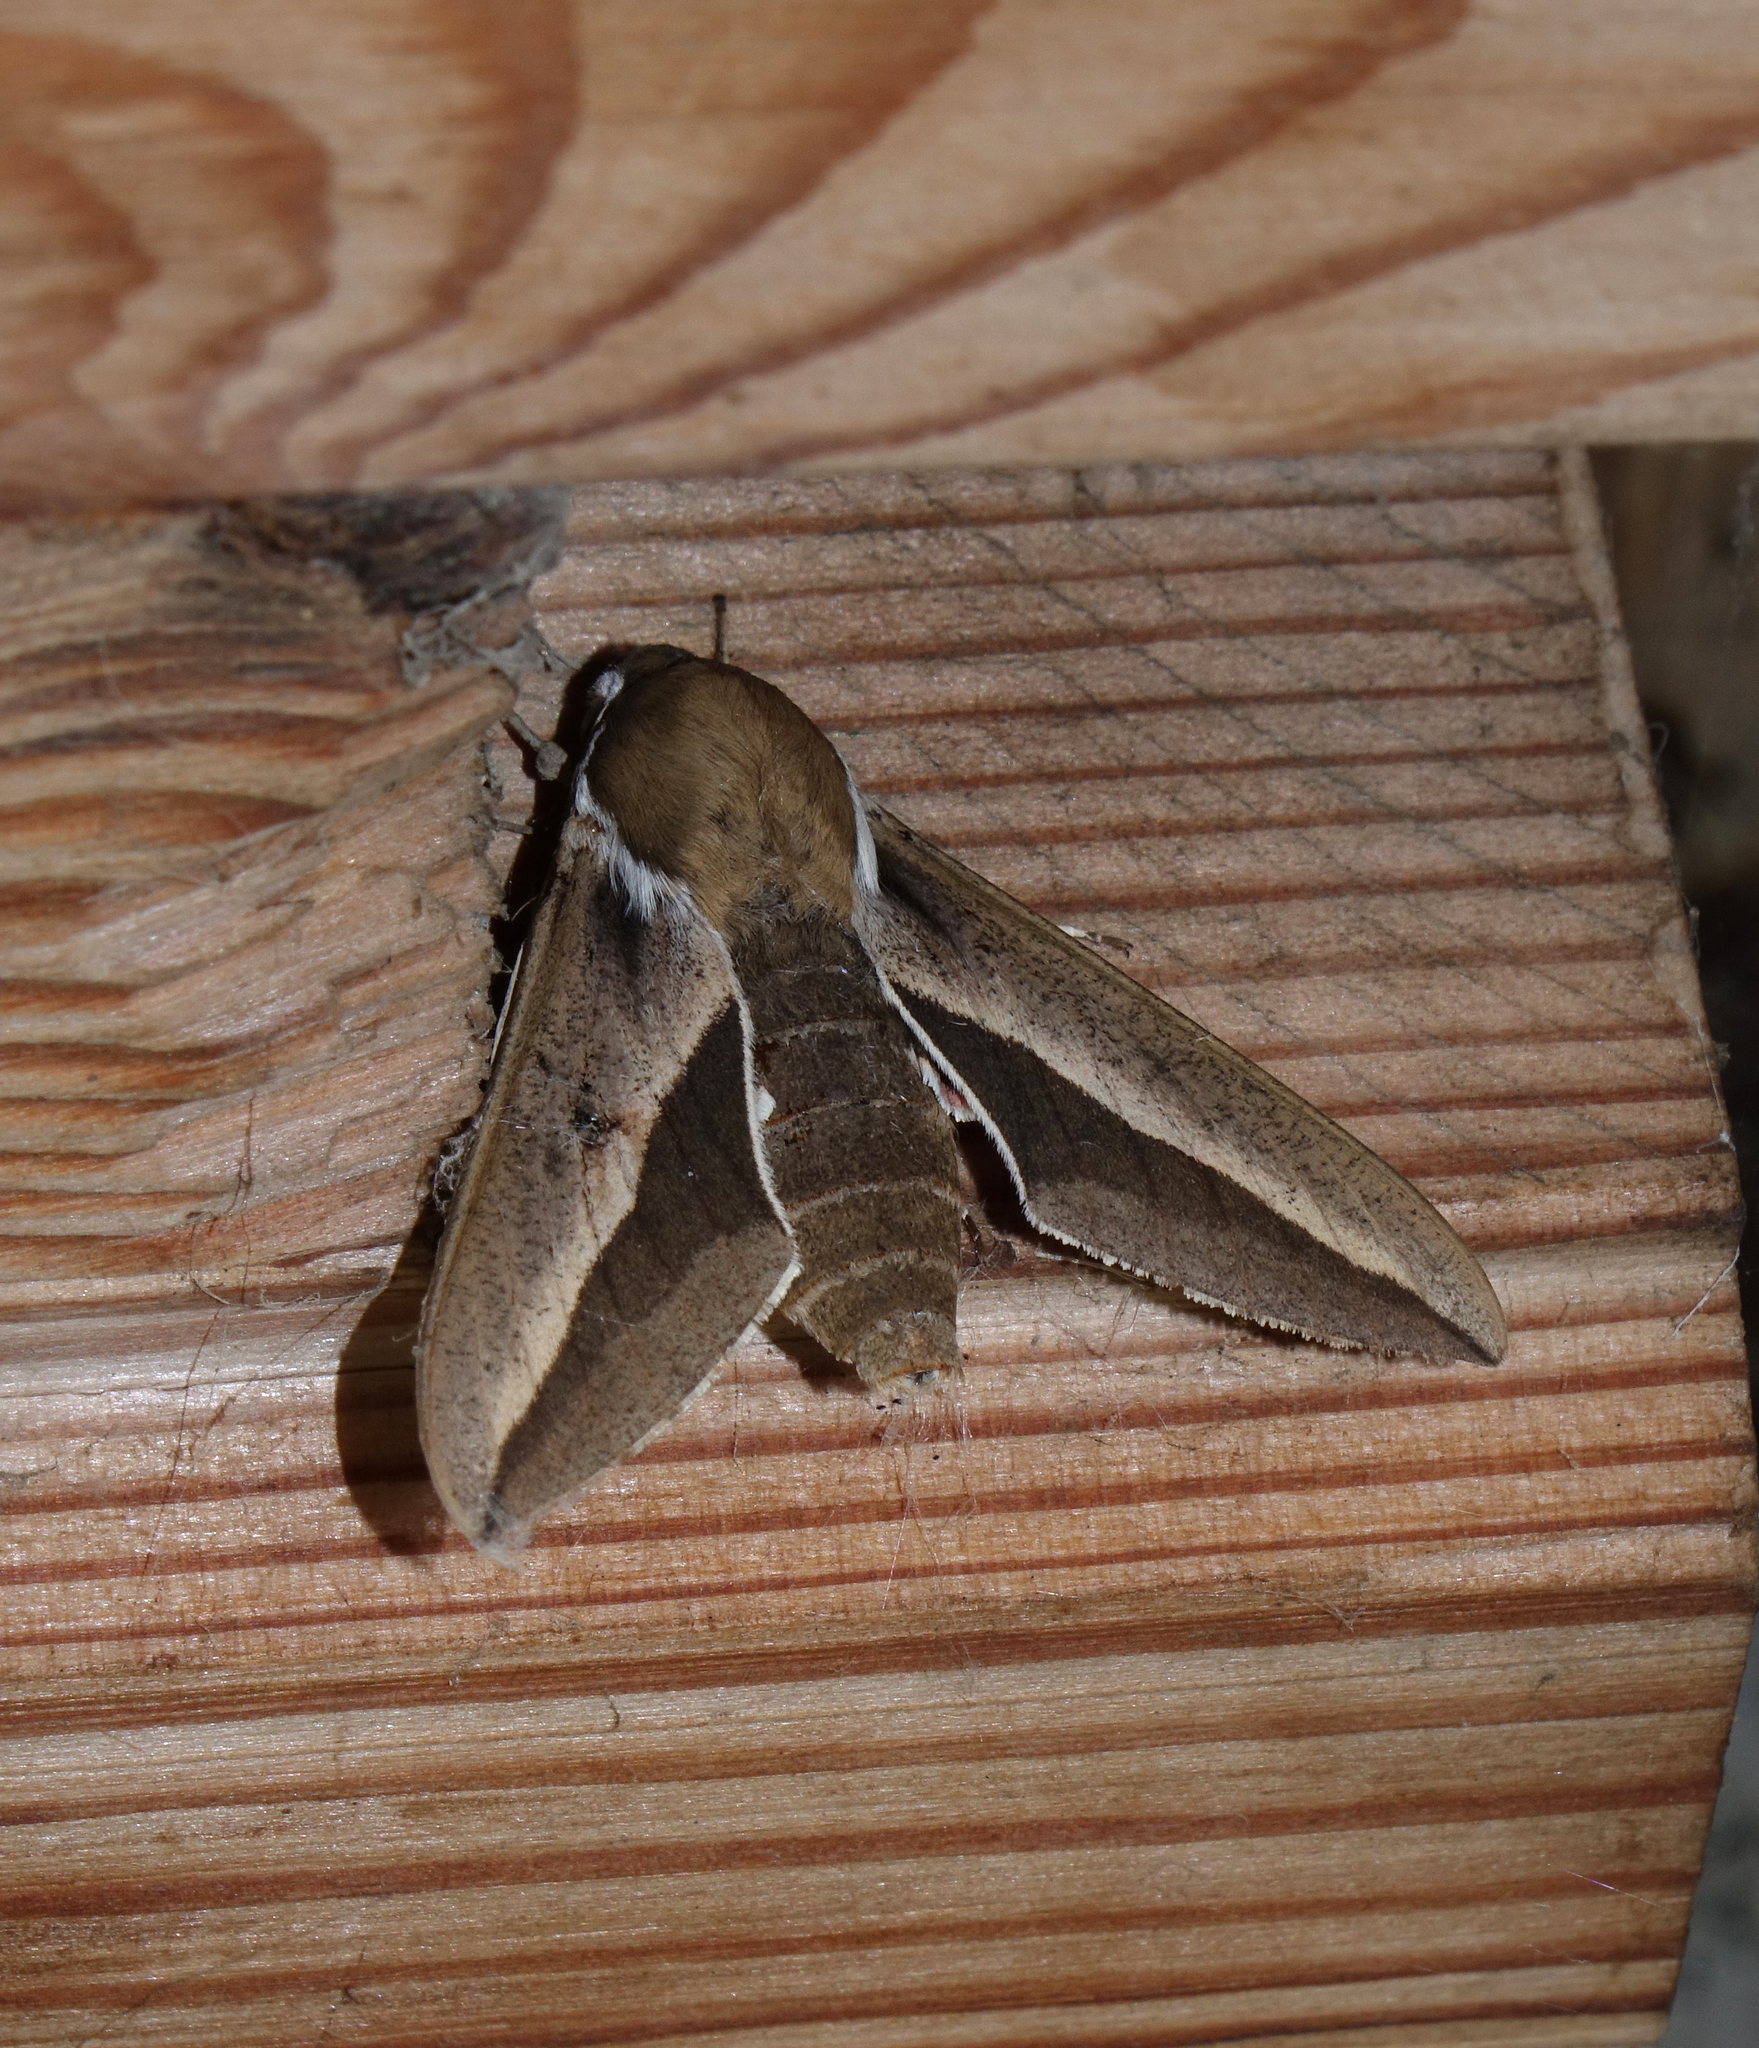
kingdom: Animalia
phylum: Arthropoda
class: Insecta
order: Lepidoptera
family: Sphingidae
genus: Hyles
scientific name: Hyles hippophaes
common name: Seathorn hawk-moth
